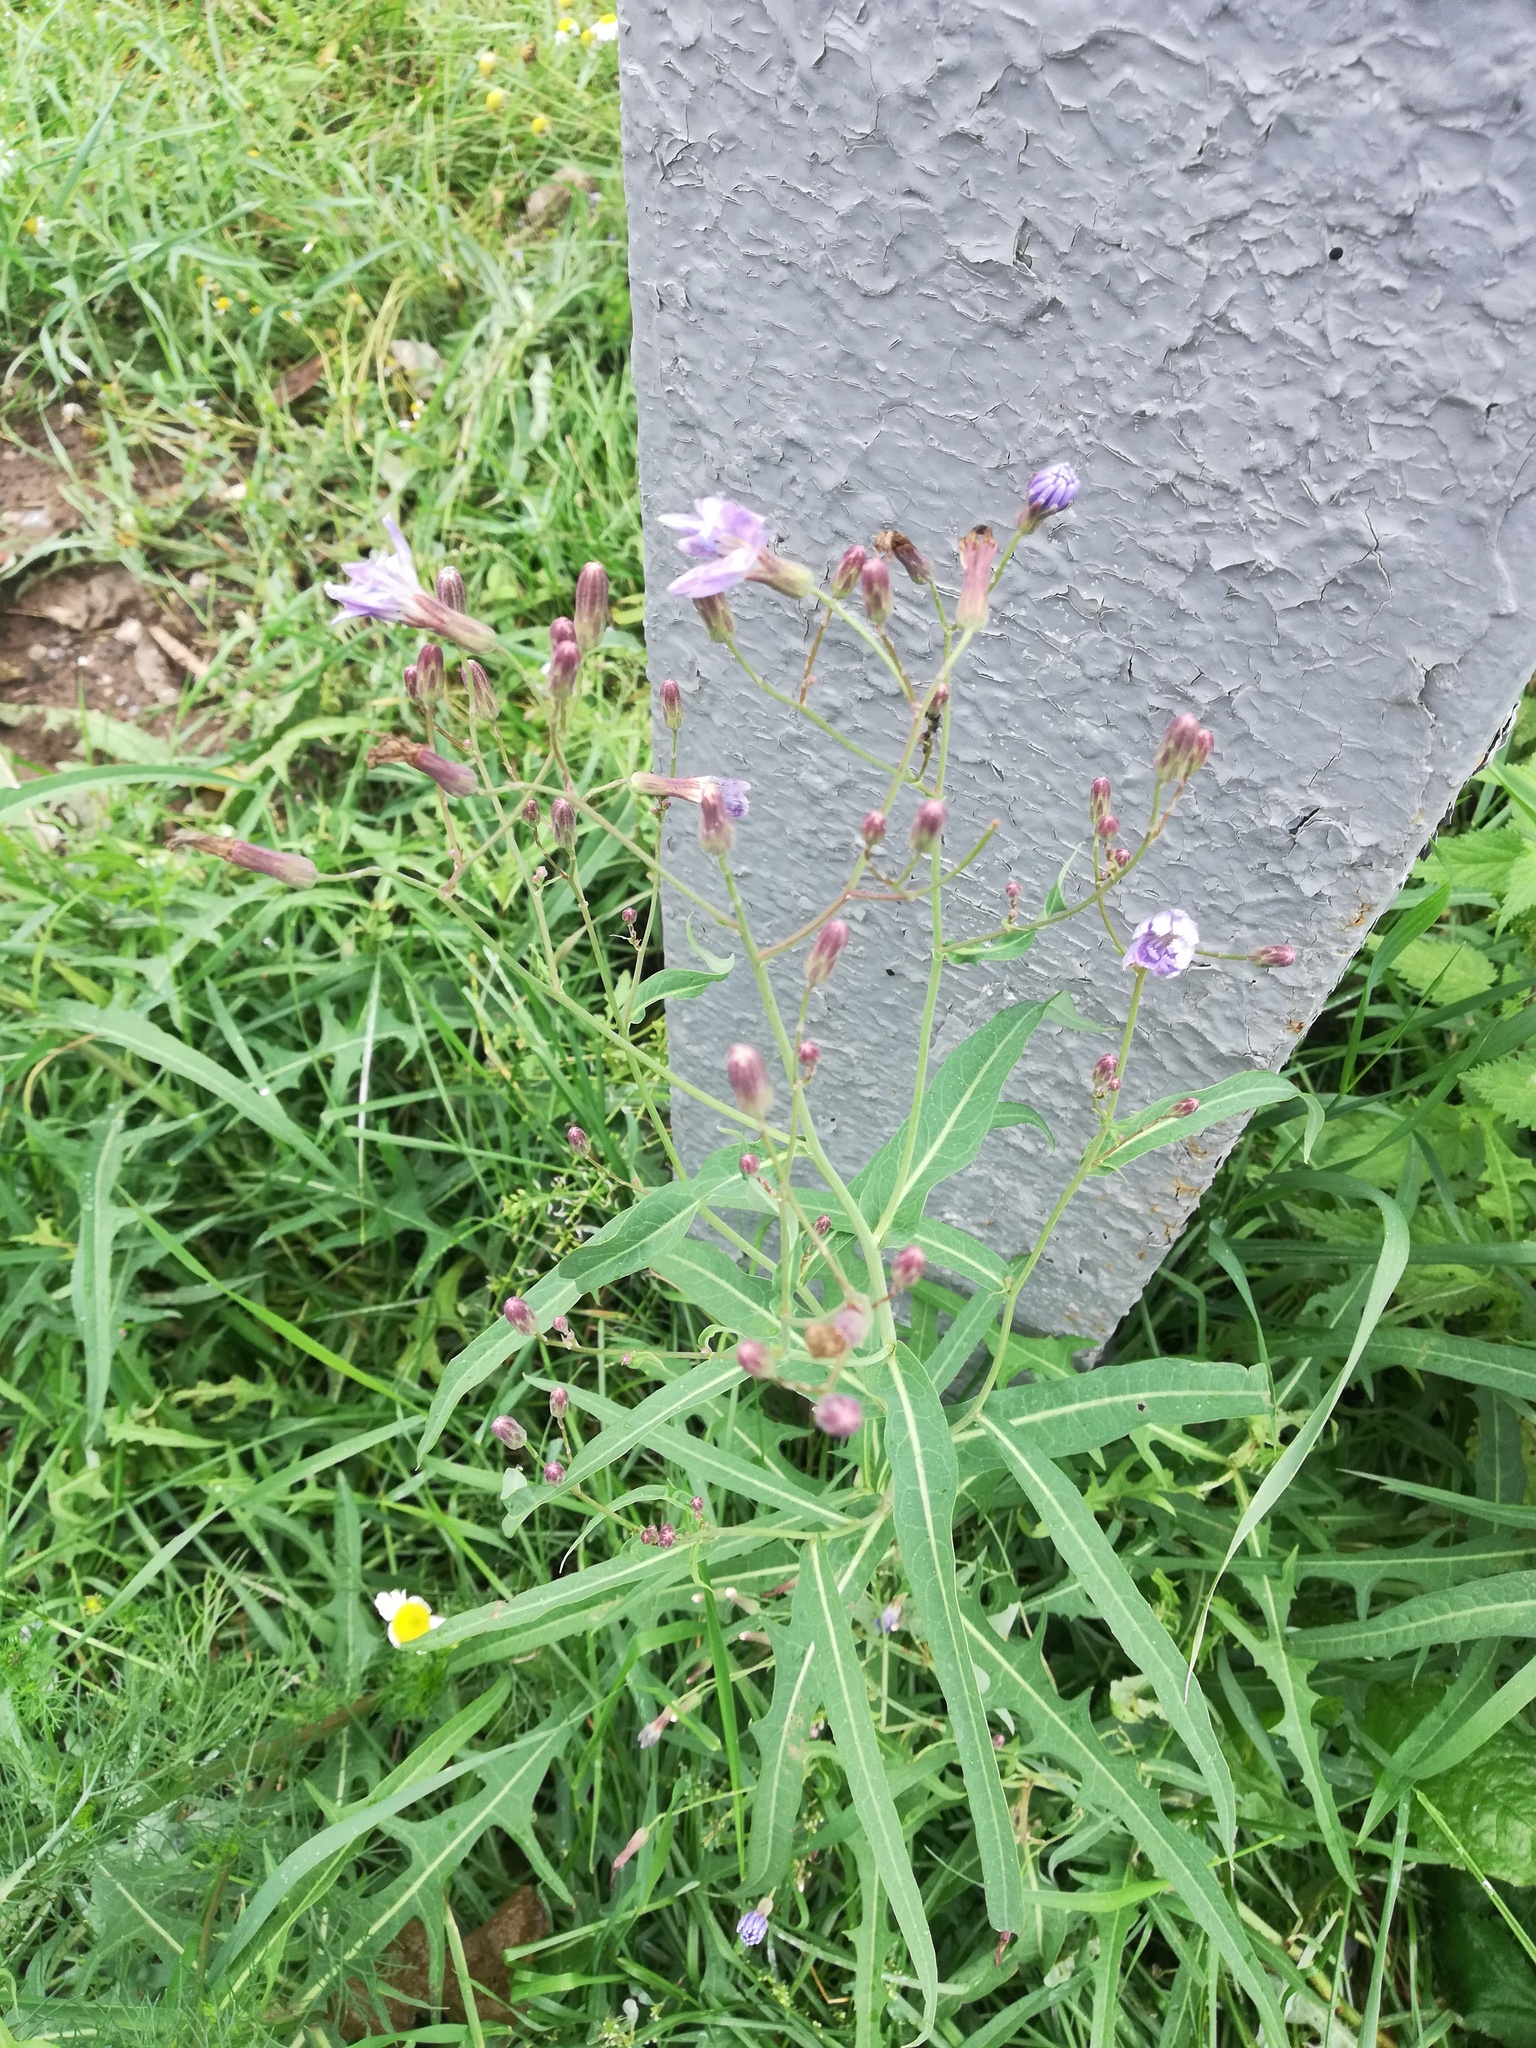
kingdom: Plantae
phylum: Tracheophyta
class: Magnoliopsida
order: Asterales
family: Asteraceae
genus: Lactuca
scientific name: Lactuca tatarica
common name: Blue lettuce
